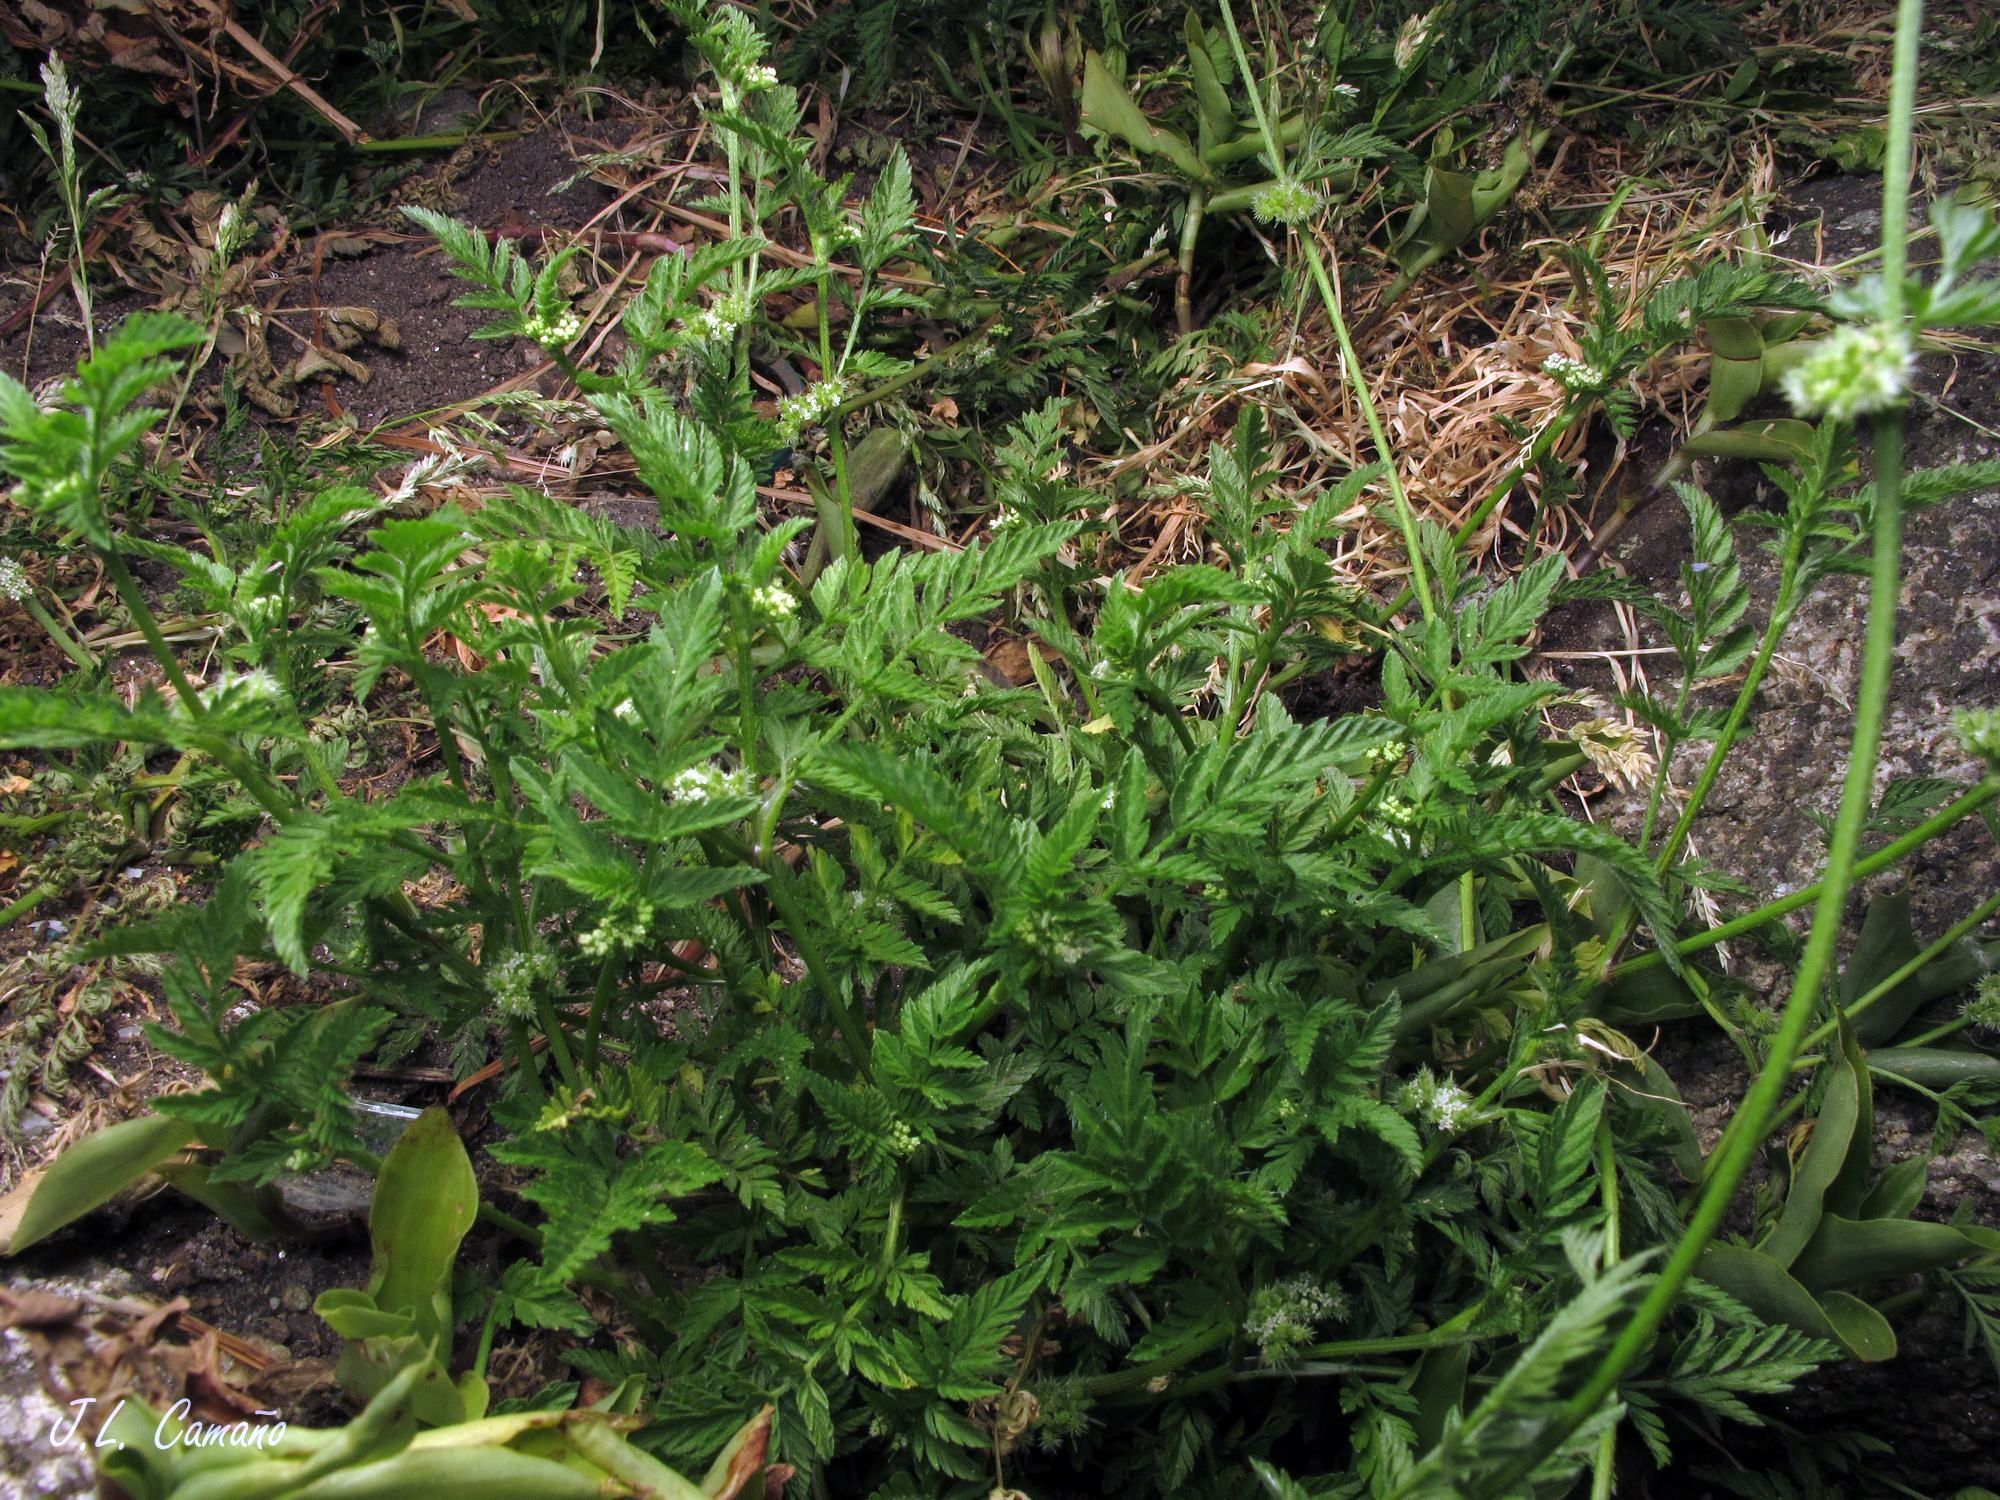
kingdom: Plantae
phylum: Tracheophyta
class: Magnoliopsida
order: Apiales
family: Apiaceae
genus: Torilis
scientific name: Torilis nodosa
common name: Knotted hedge-parsley
